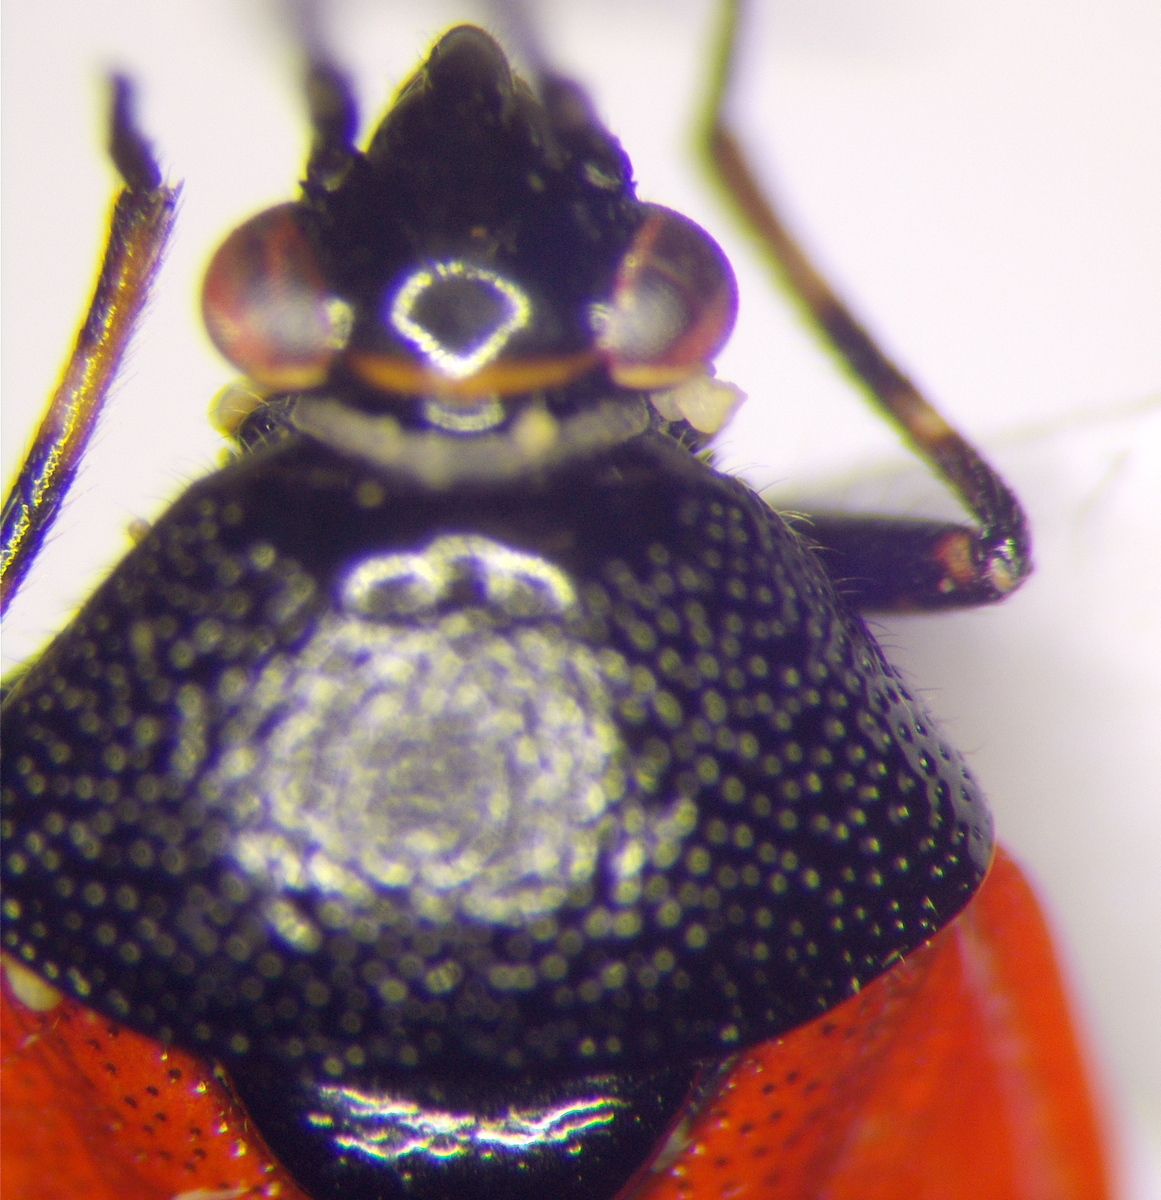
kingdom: Animalia
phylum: Arthropoda
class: Insecta
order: Hemiptera
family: Miridae
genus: Deraeocoris
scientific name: Deraeocoris rutilus
